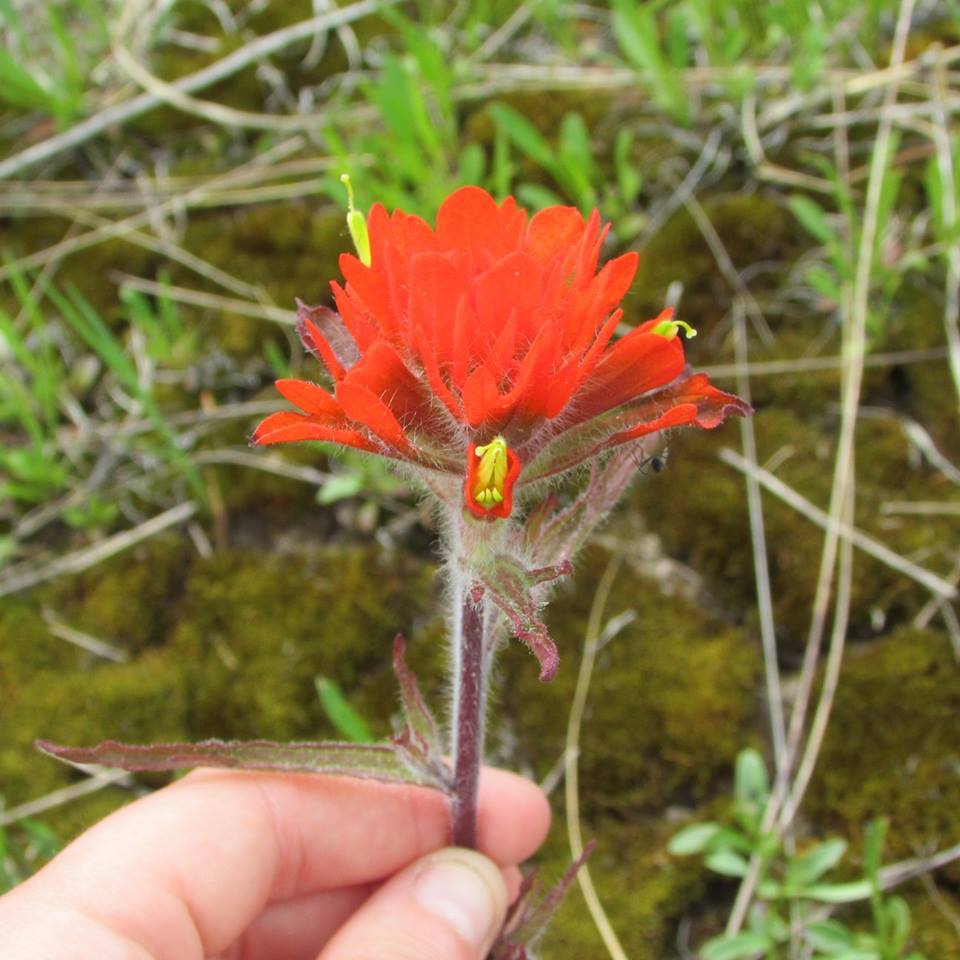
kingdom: Plantae
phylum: Tracheophyta
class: Magnoliopsida
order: Lamiales
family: Orobanchaceae
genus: Castilleja
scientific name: Castilleja coccinea
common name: Scarlet paintbrush
